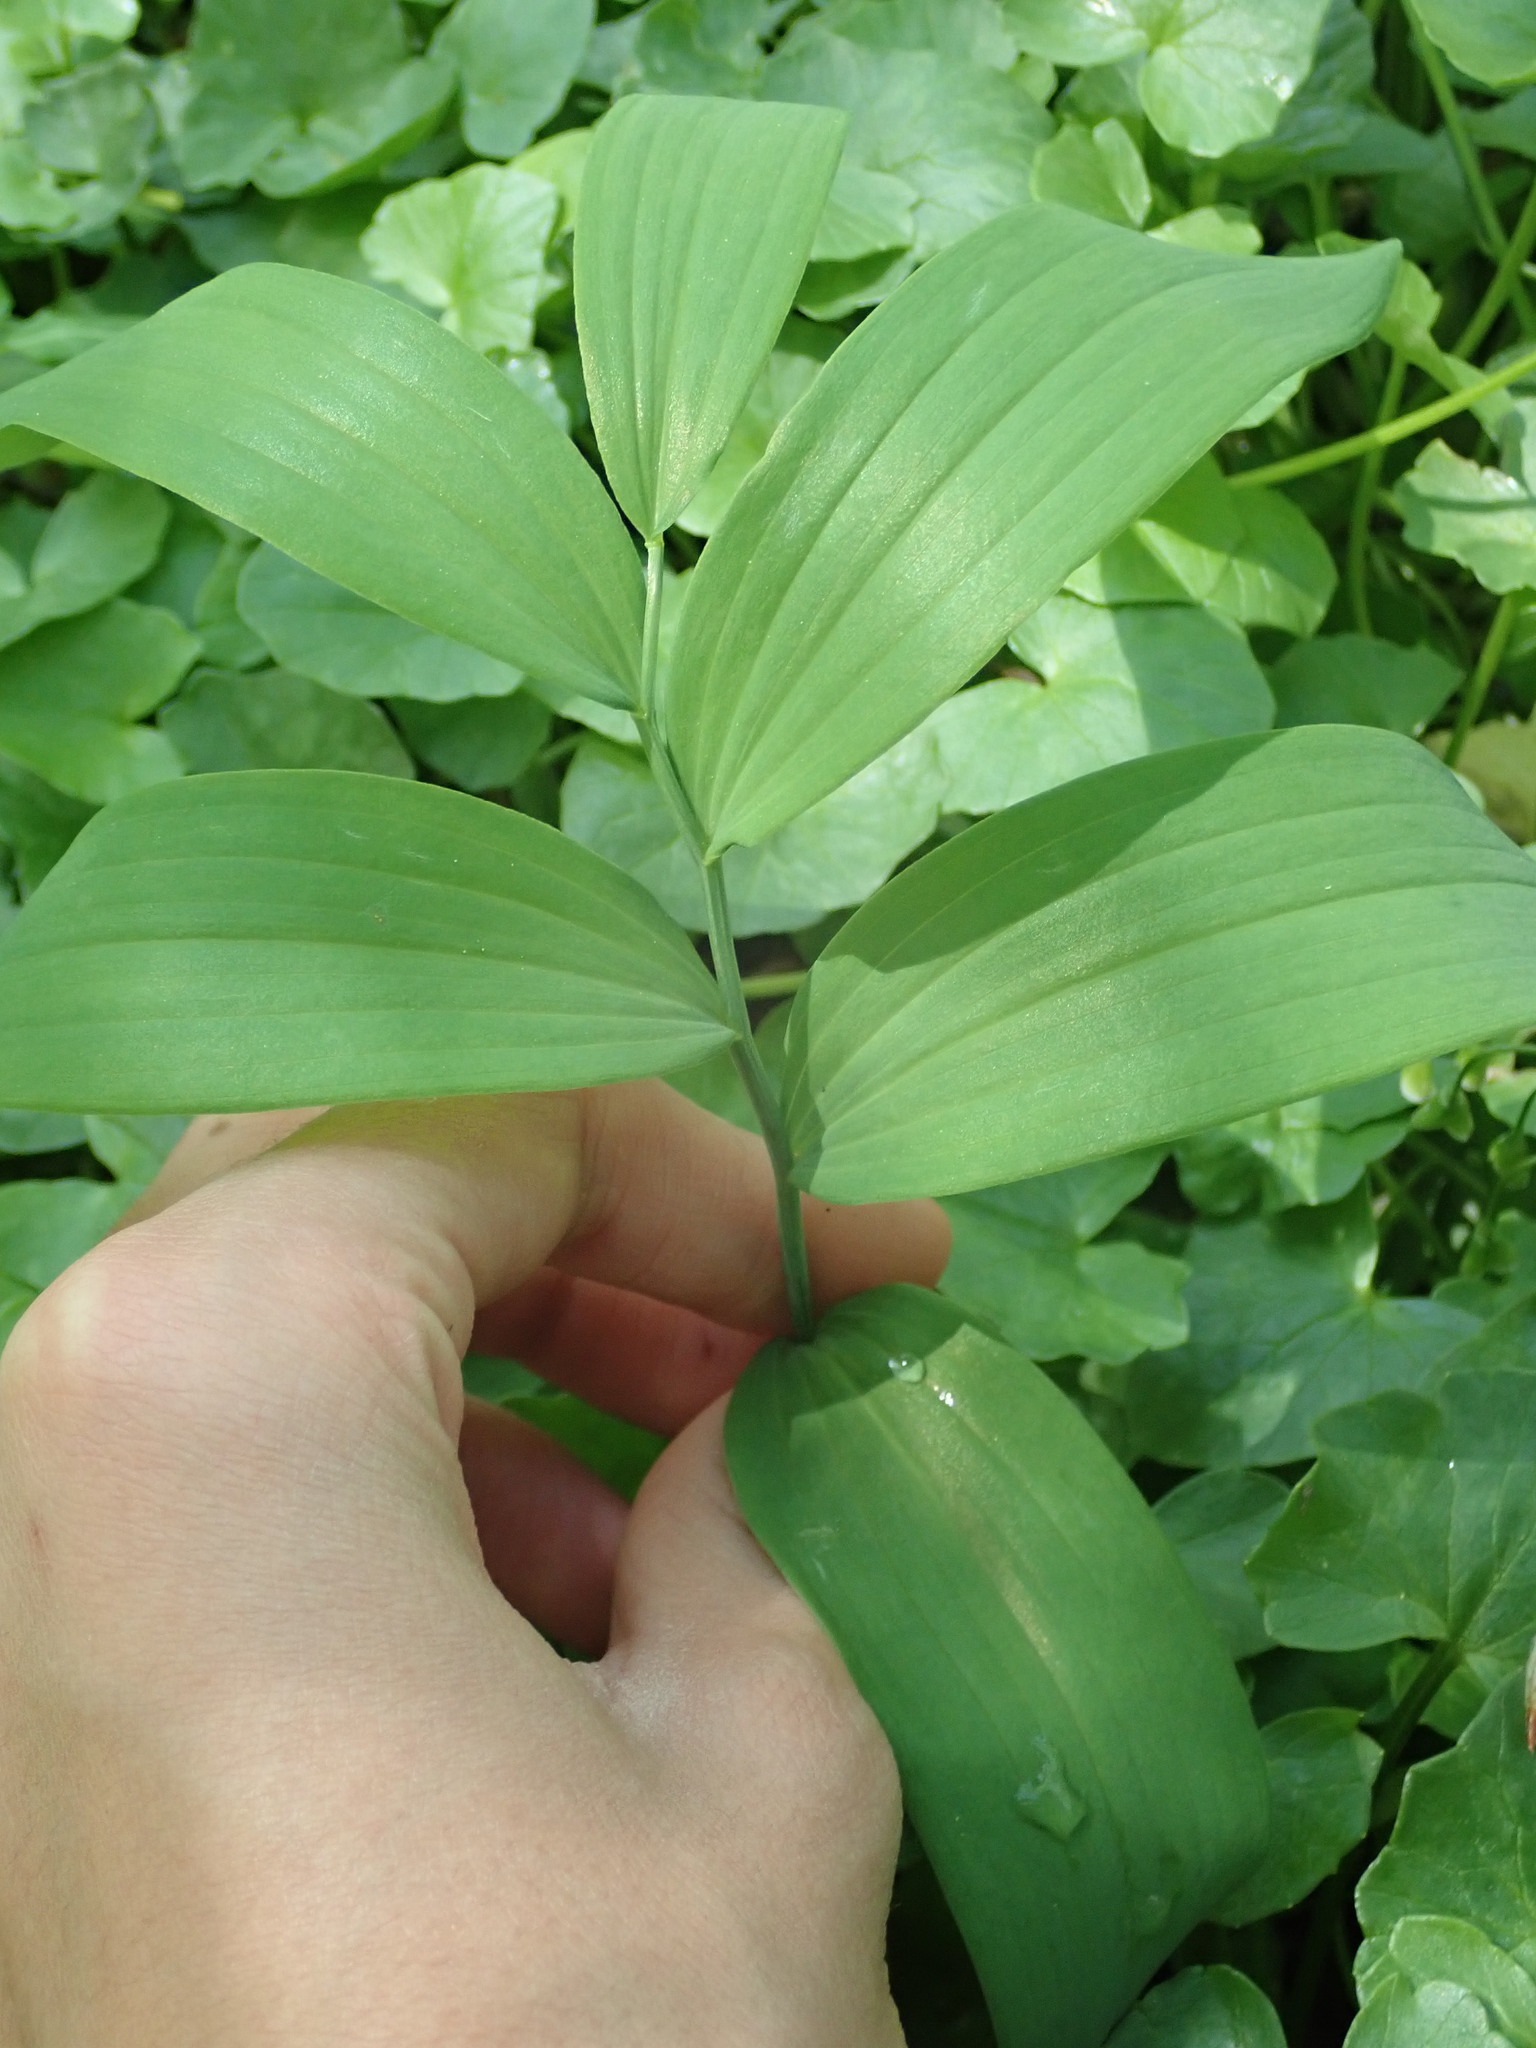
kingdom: Plantae
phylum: Tracheophyta
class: Liliopsida
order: Asparagales
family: Asparagaceae
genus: Polygonatum
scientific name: Polygonatum biflorum
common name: American solomon's-seal
